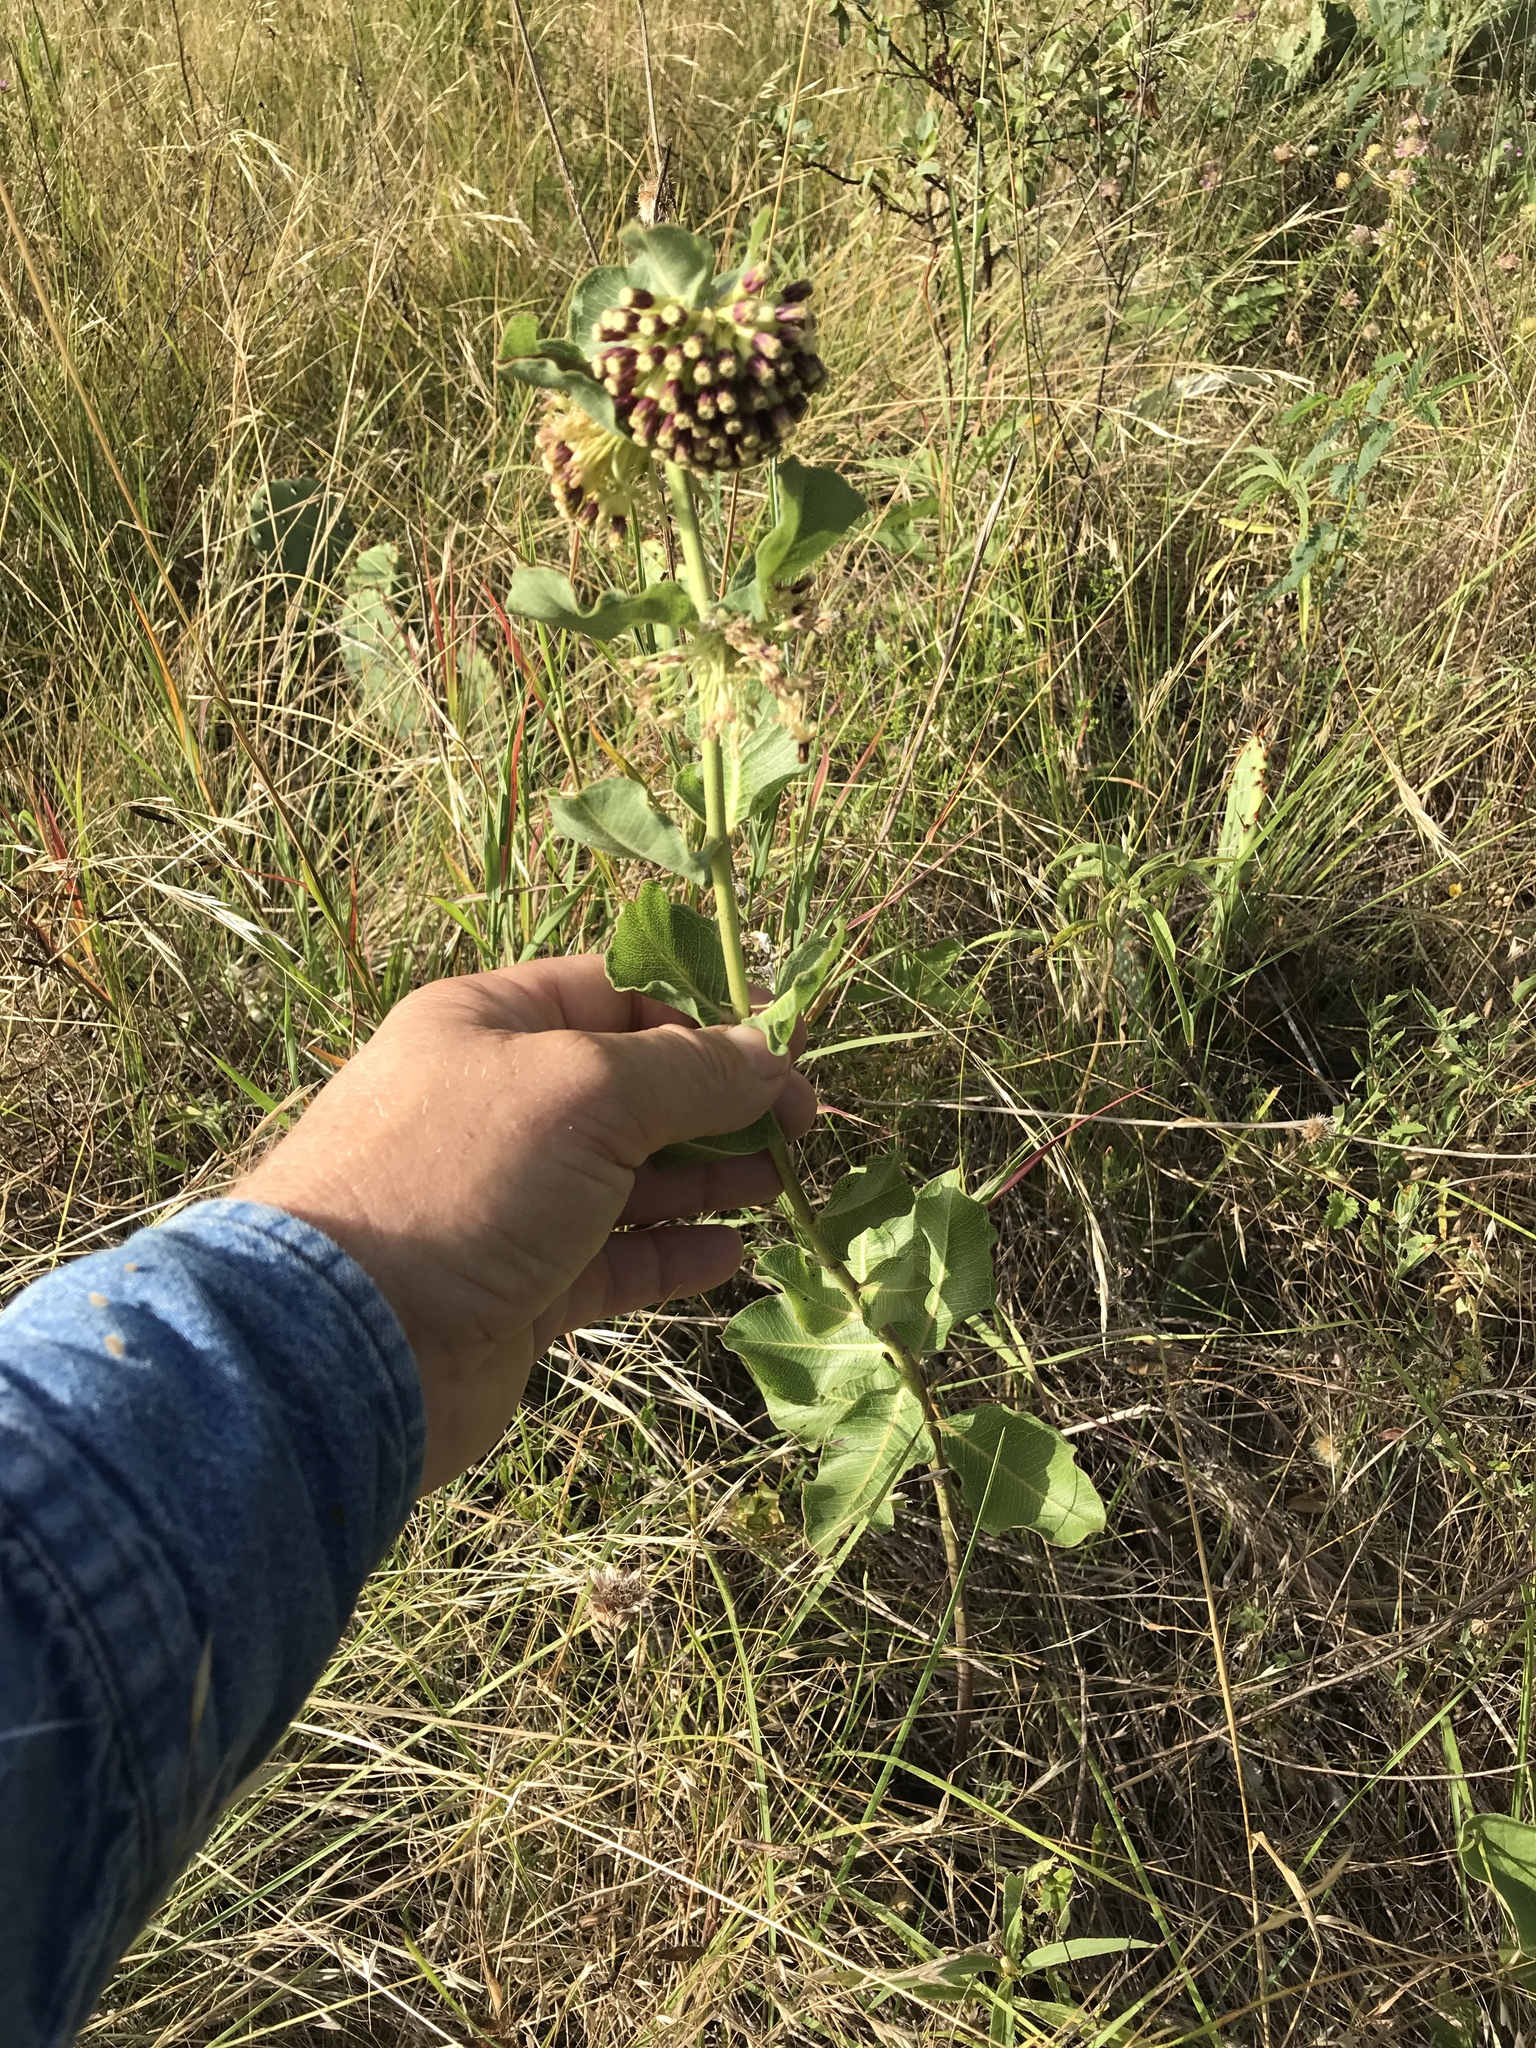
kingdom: Plantae
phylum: Tracheophyta
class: Magnoliopsida
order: Gentianales
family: Apocynaceae
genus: Asclepias
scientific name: Asclepias viridiflora
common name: Green comet milkweed
